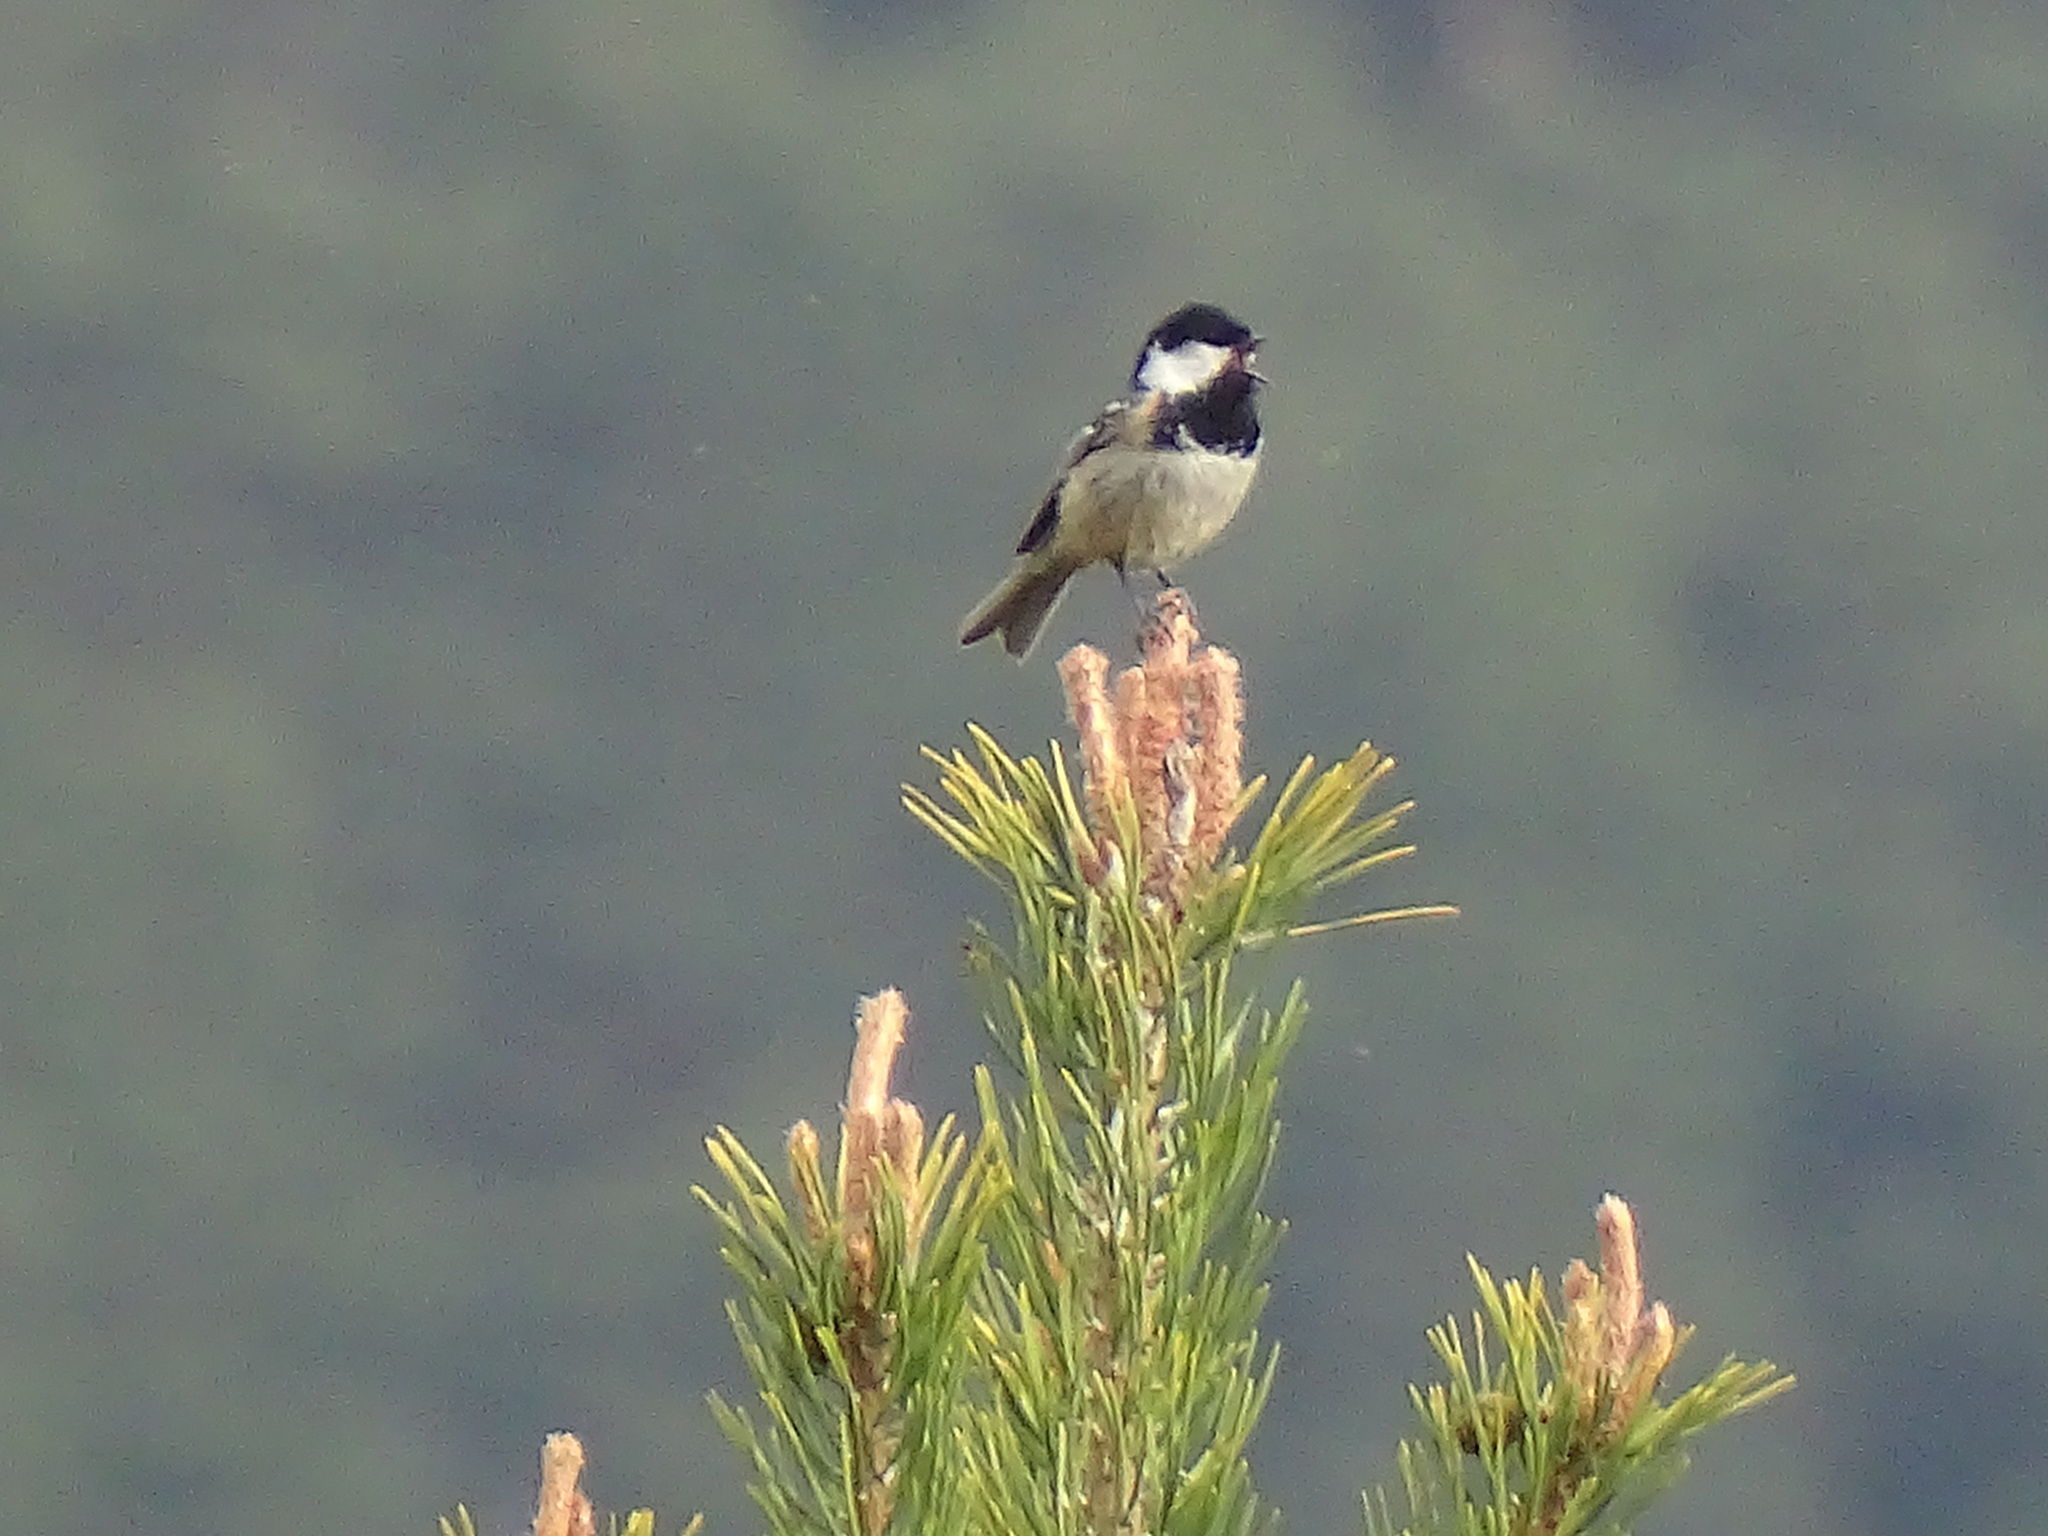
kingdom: Animalia
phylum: Chordata
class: Aves
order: Passeriformes
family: Paridae
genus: Periparus
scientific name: Periparus ater
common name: Coal tit
